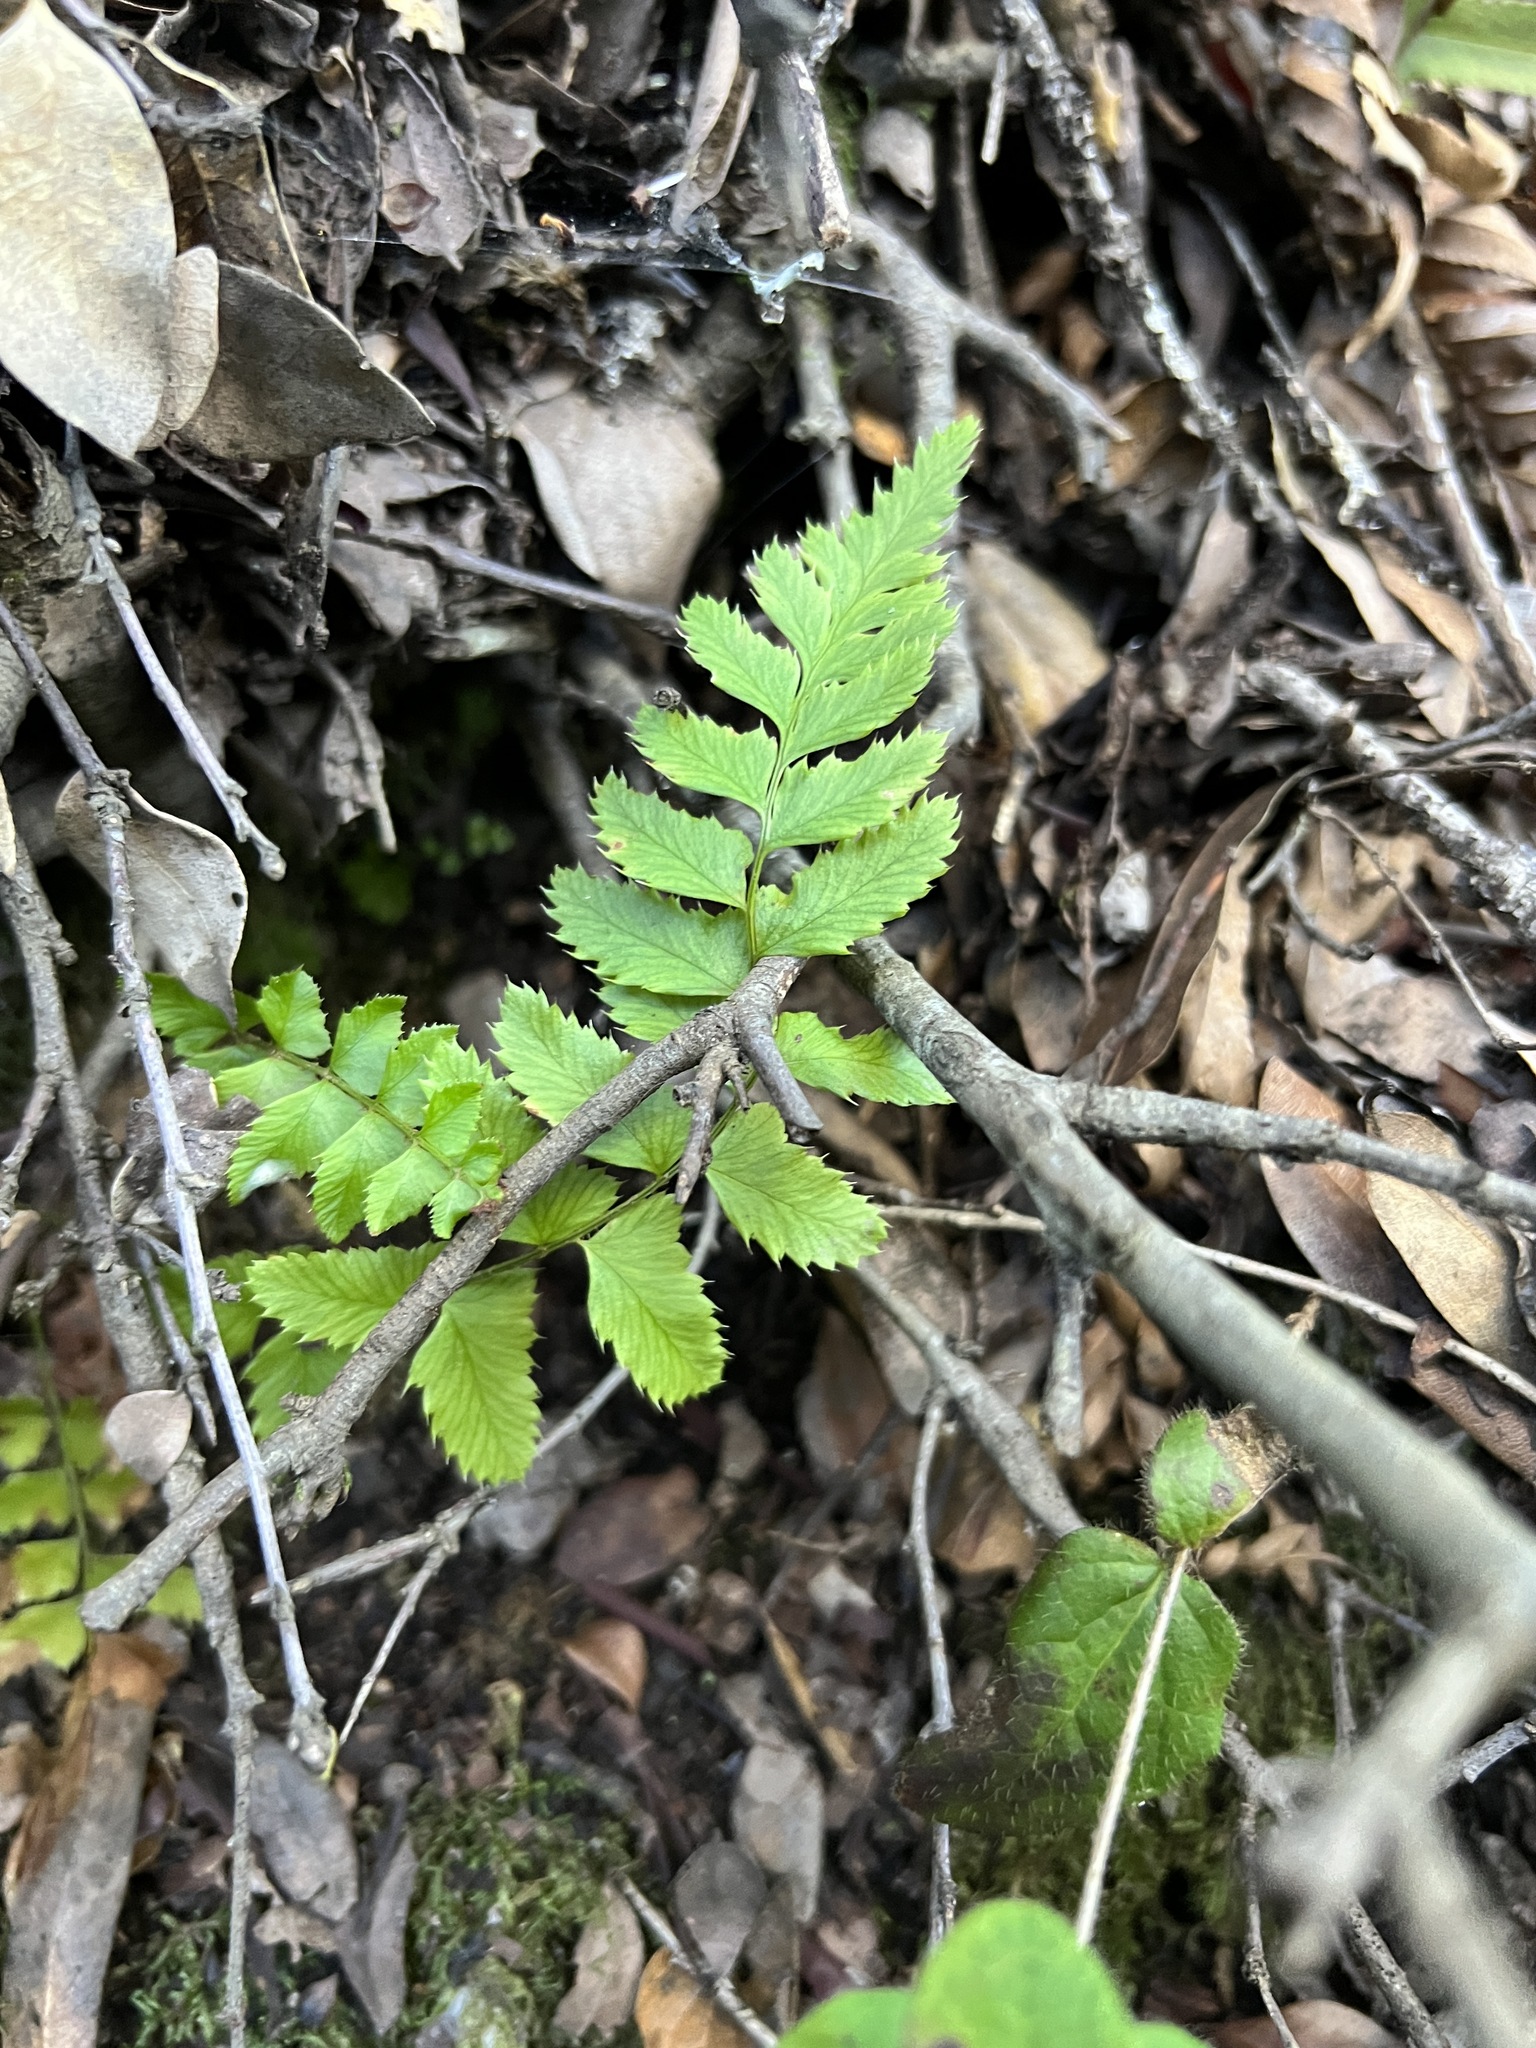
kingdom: Plantae
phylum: Tracheophyta
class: Polypodiopsida
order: Polypodiales
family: Dryopteridaceae
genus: Polystichum
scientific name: Polystichum munitum
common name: Western sword-fern
